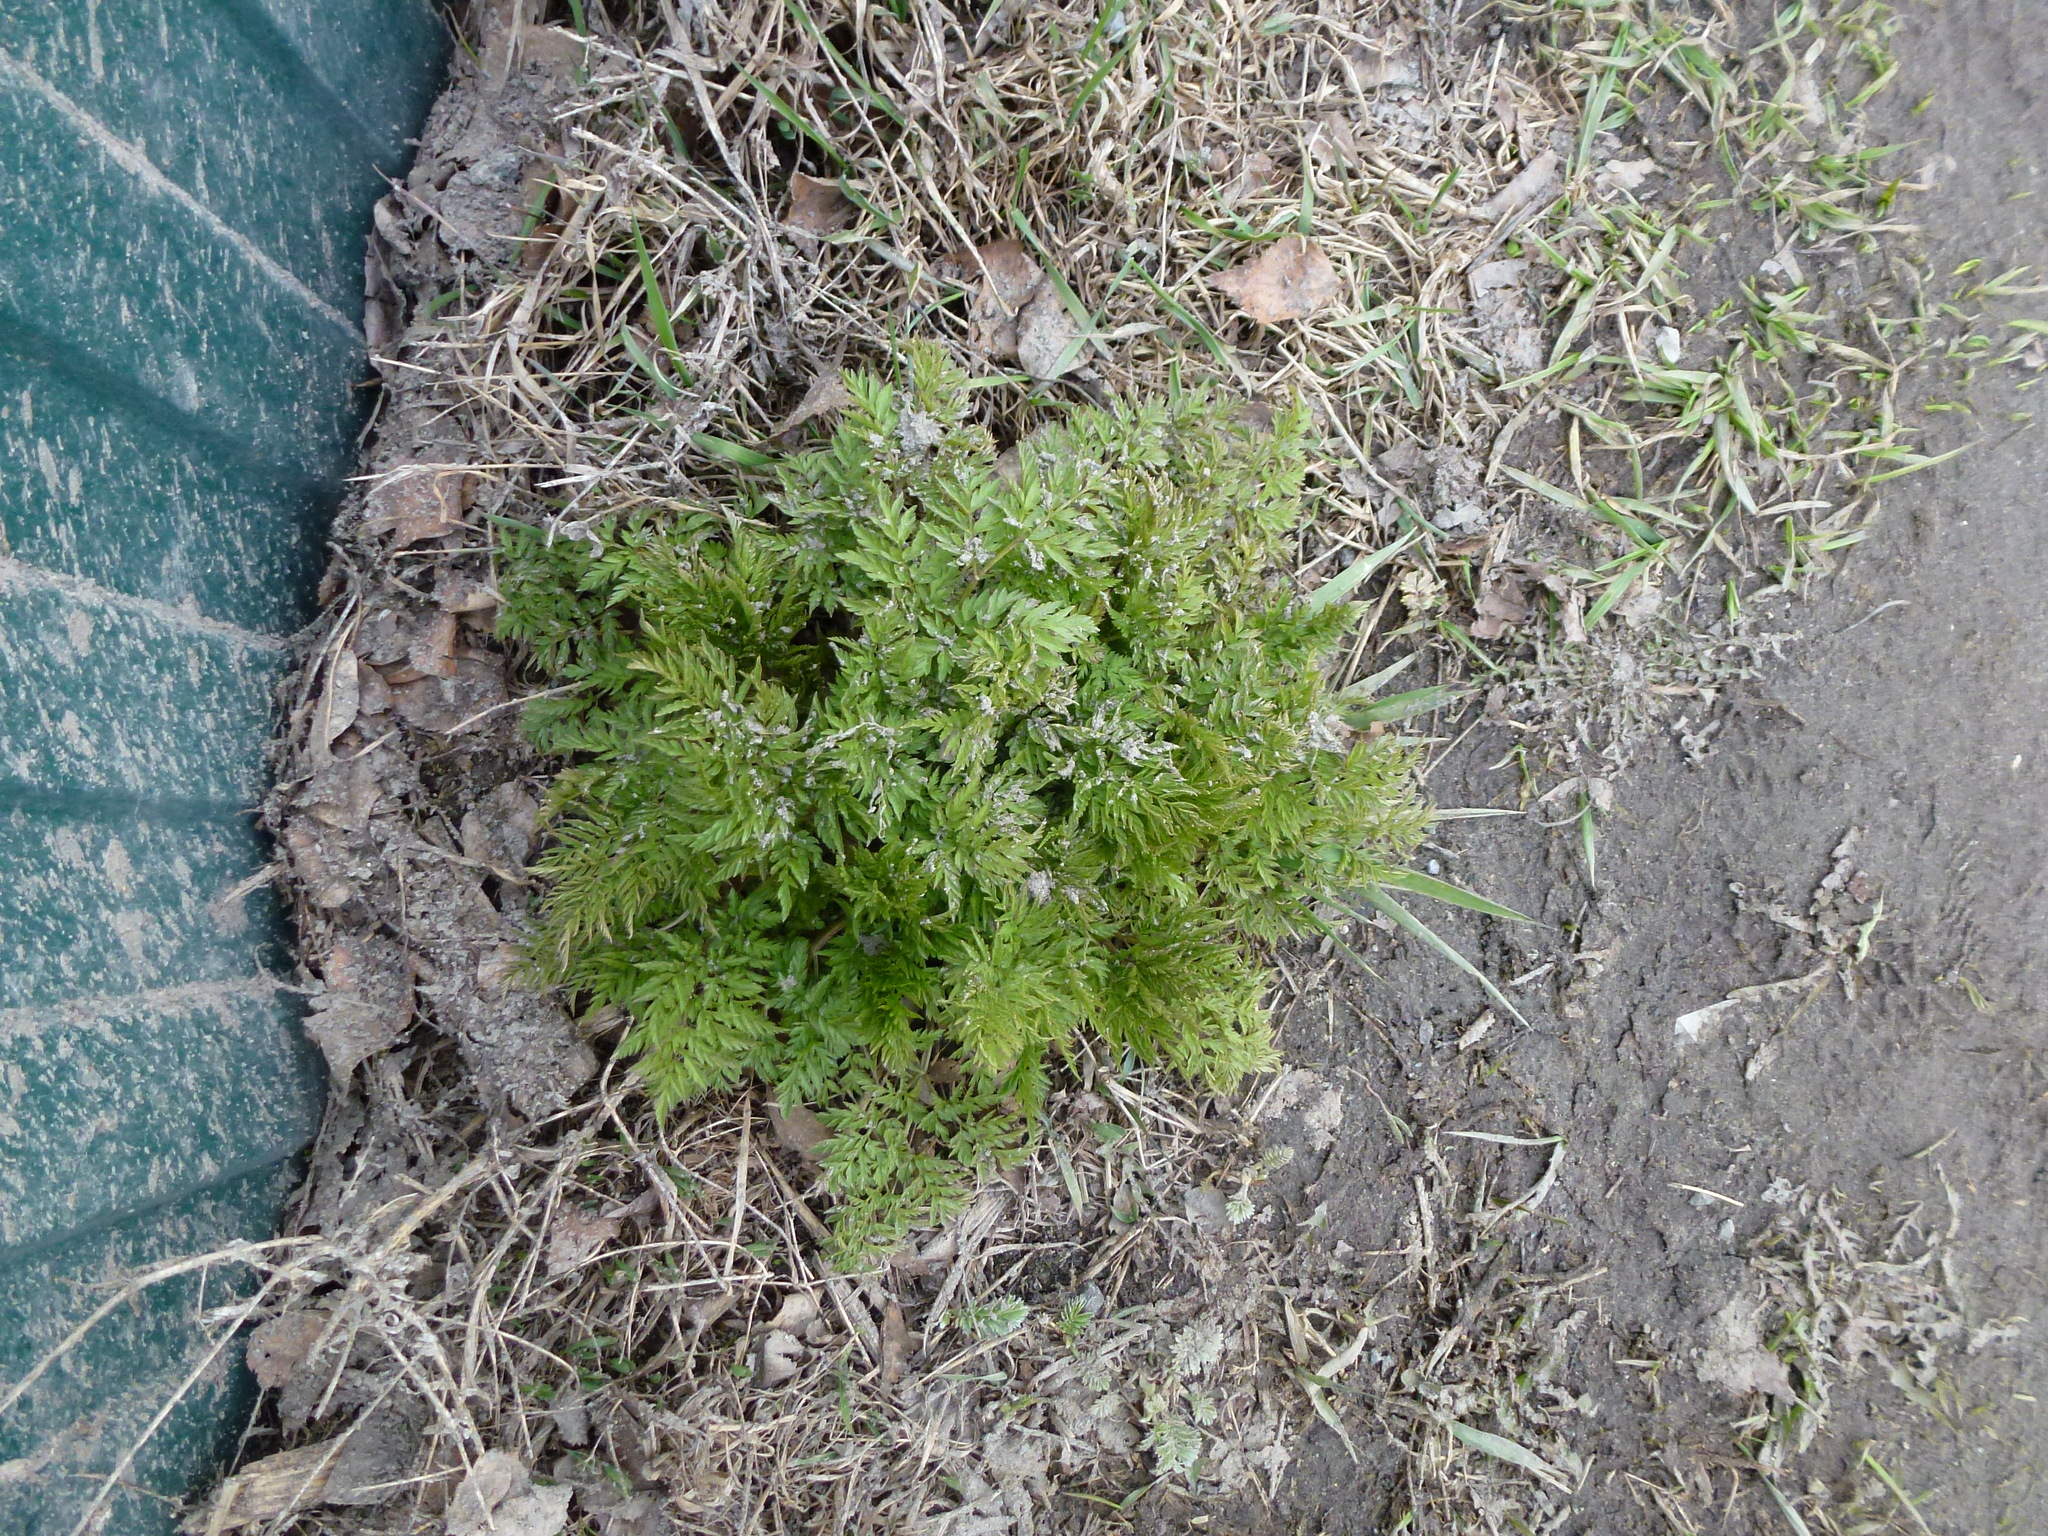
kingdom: Plantae
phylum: Tracheophyta
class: Magnoliopsida
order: Apiales
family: Apiaceae
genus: Anthriscus
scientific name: Anthriscus sylvestris
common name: Cow parsley
